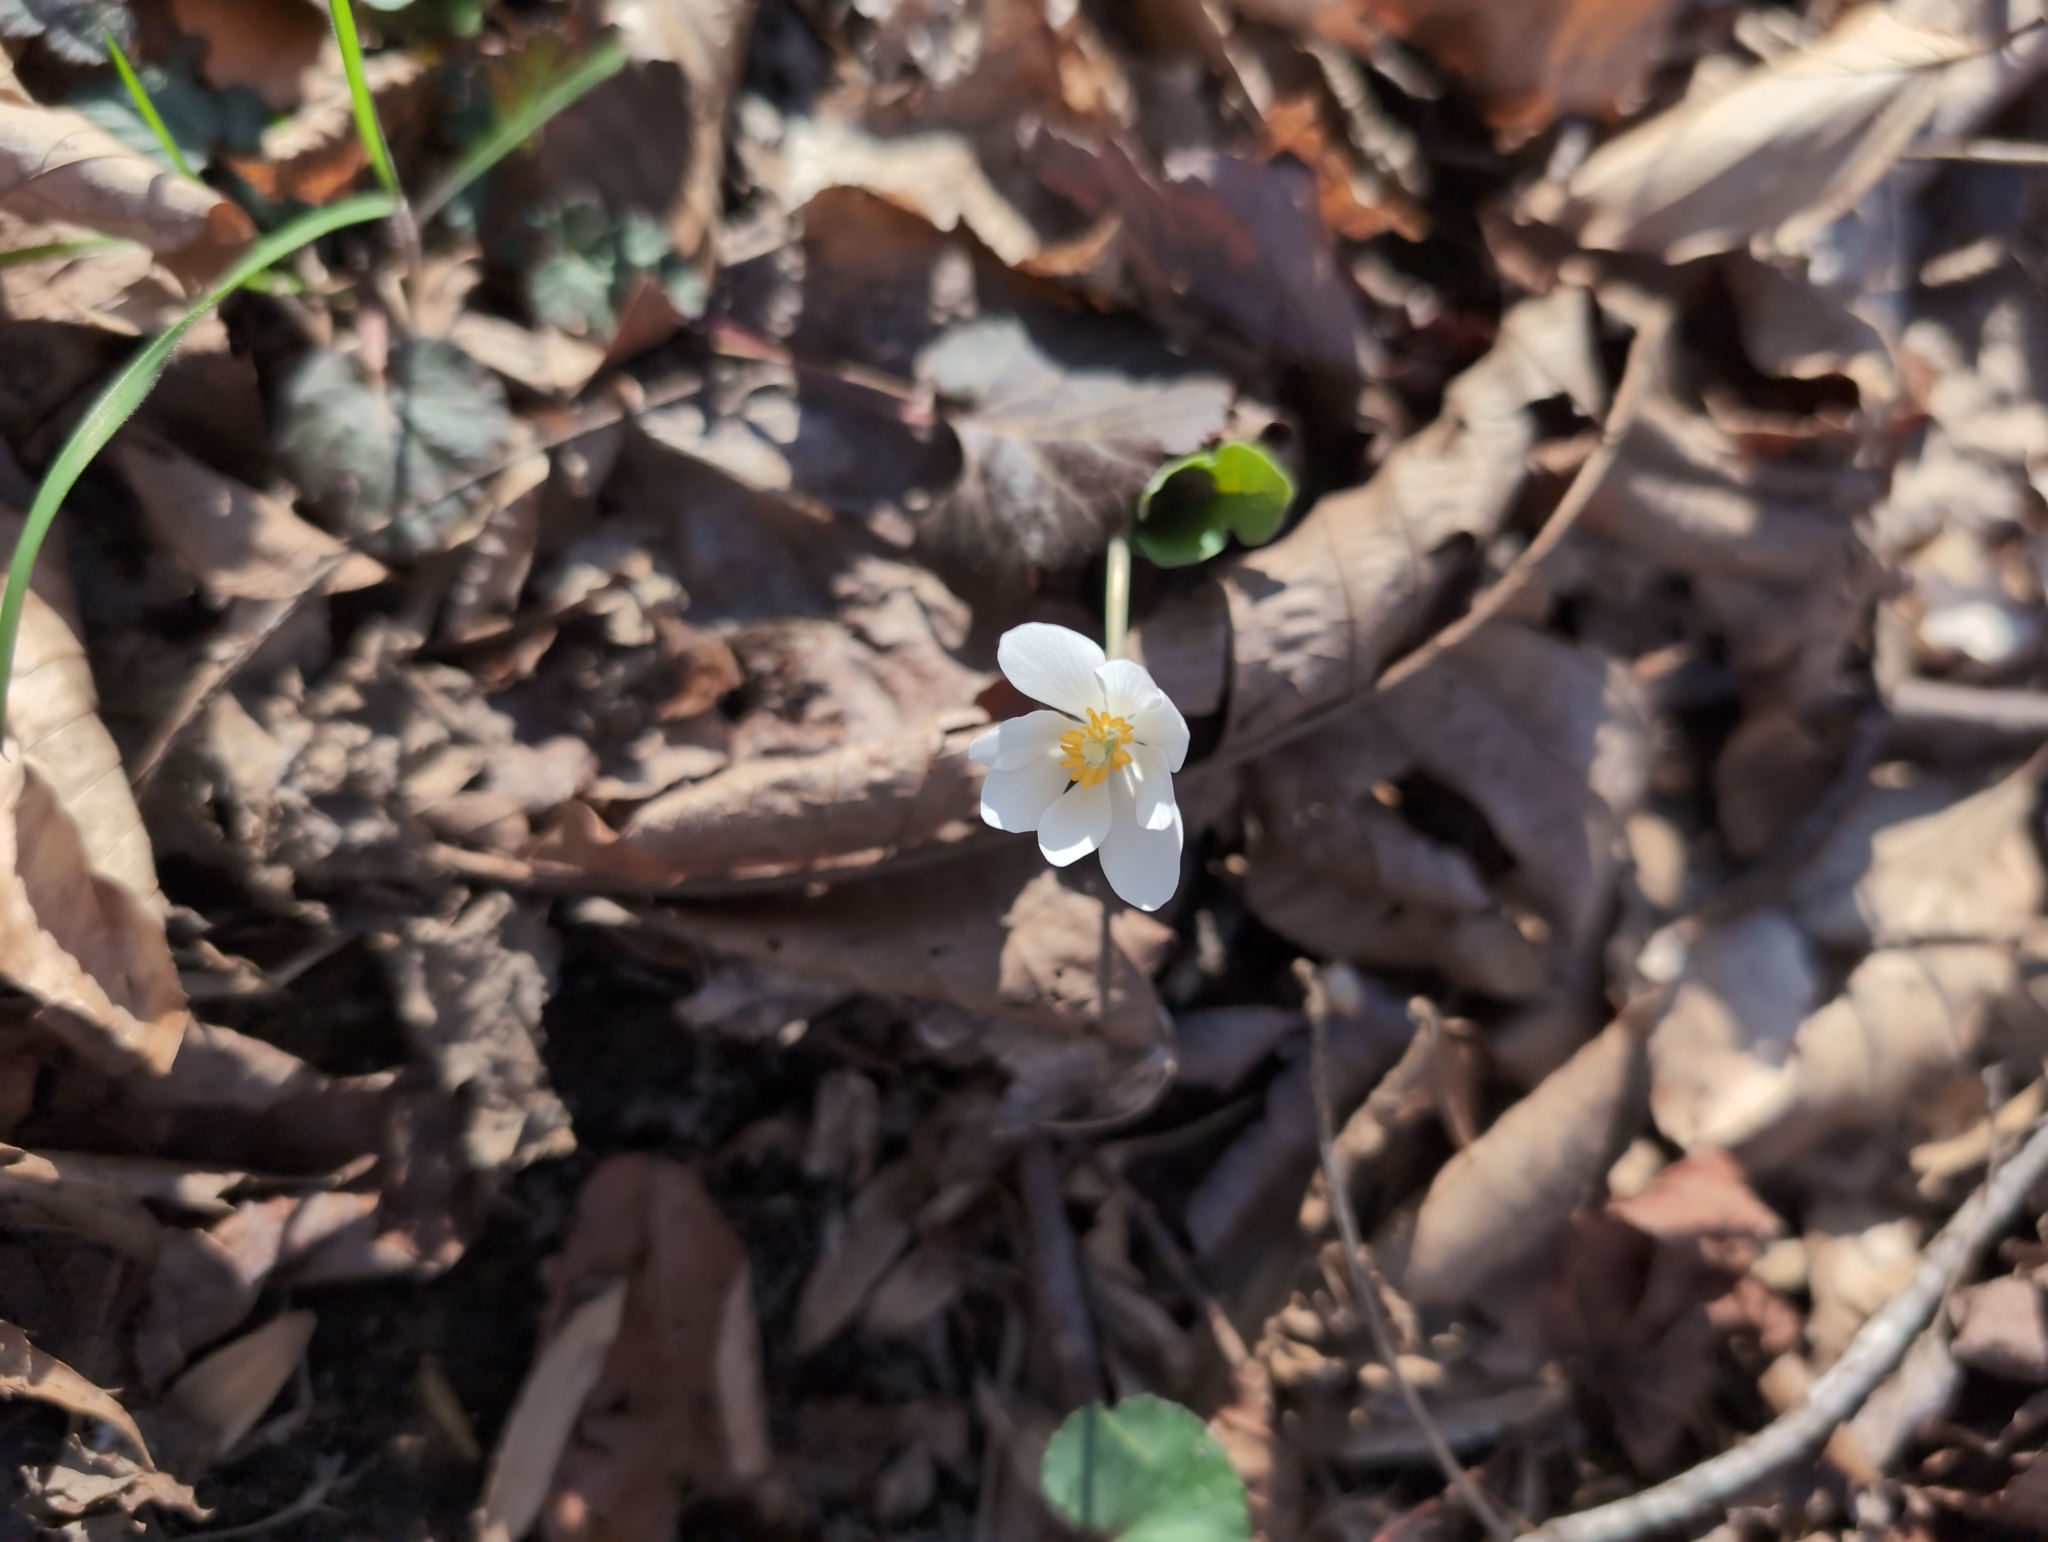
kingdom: Plantae
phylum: Tracheophyta
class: Magnoliopsida
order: Ranunculales
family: Papaveraceae
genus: Sanguinaria
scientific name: Sanguinaria canadensis
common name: Bloodroot
